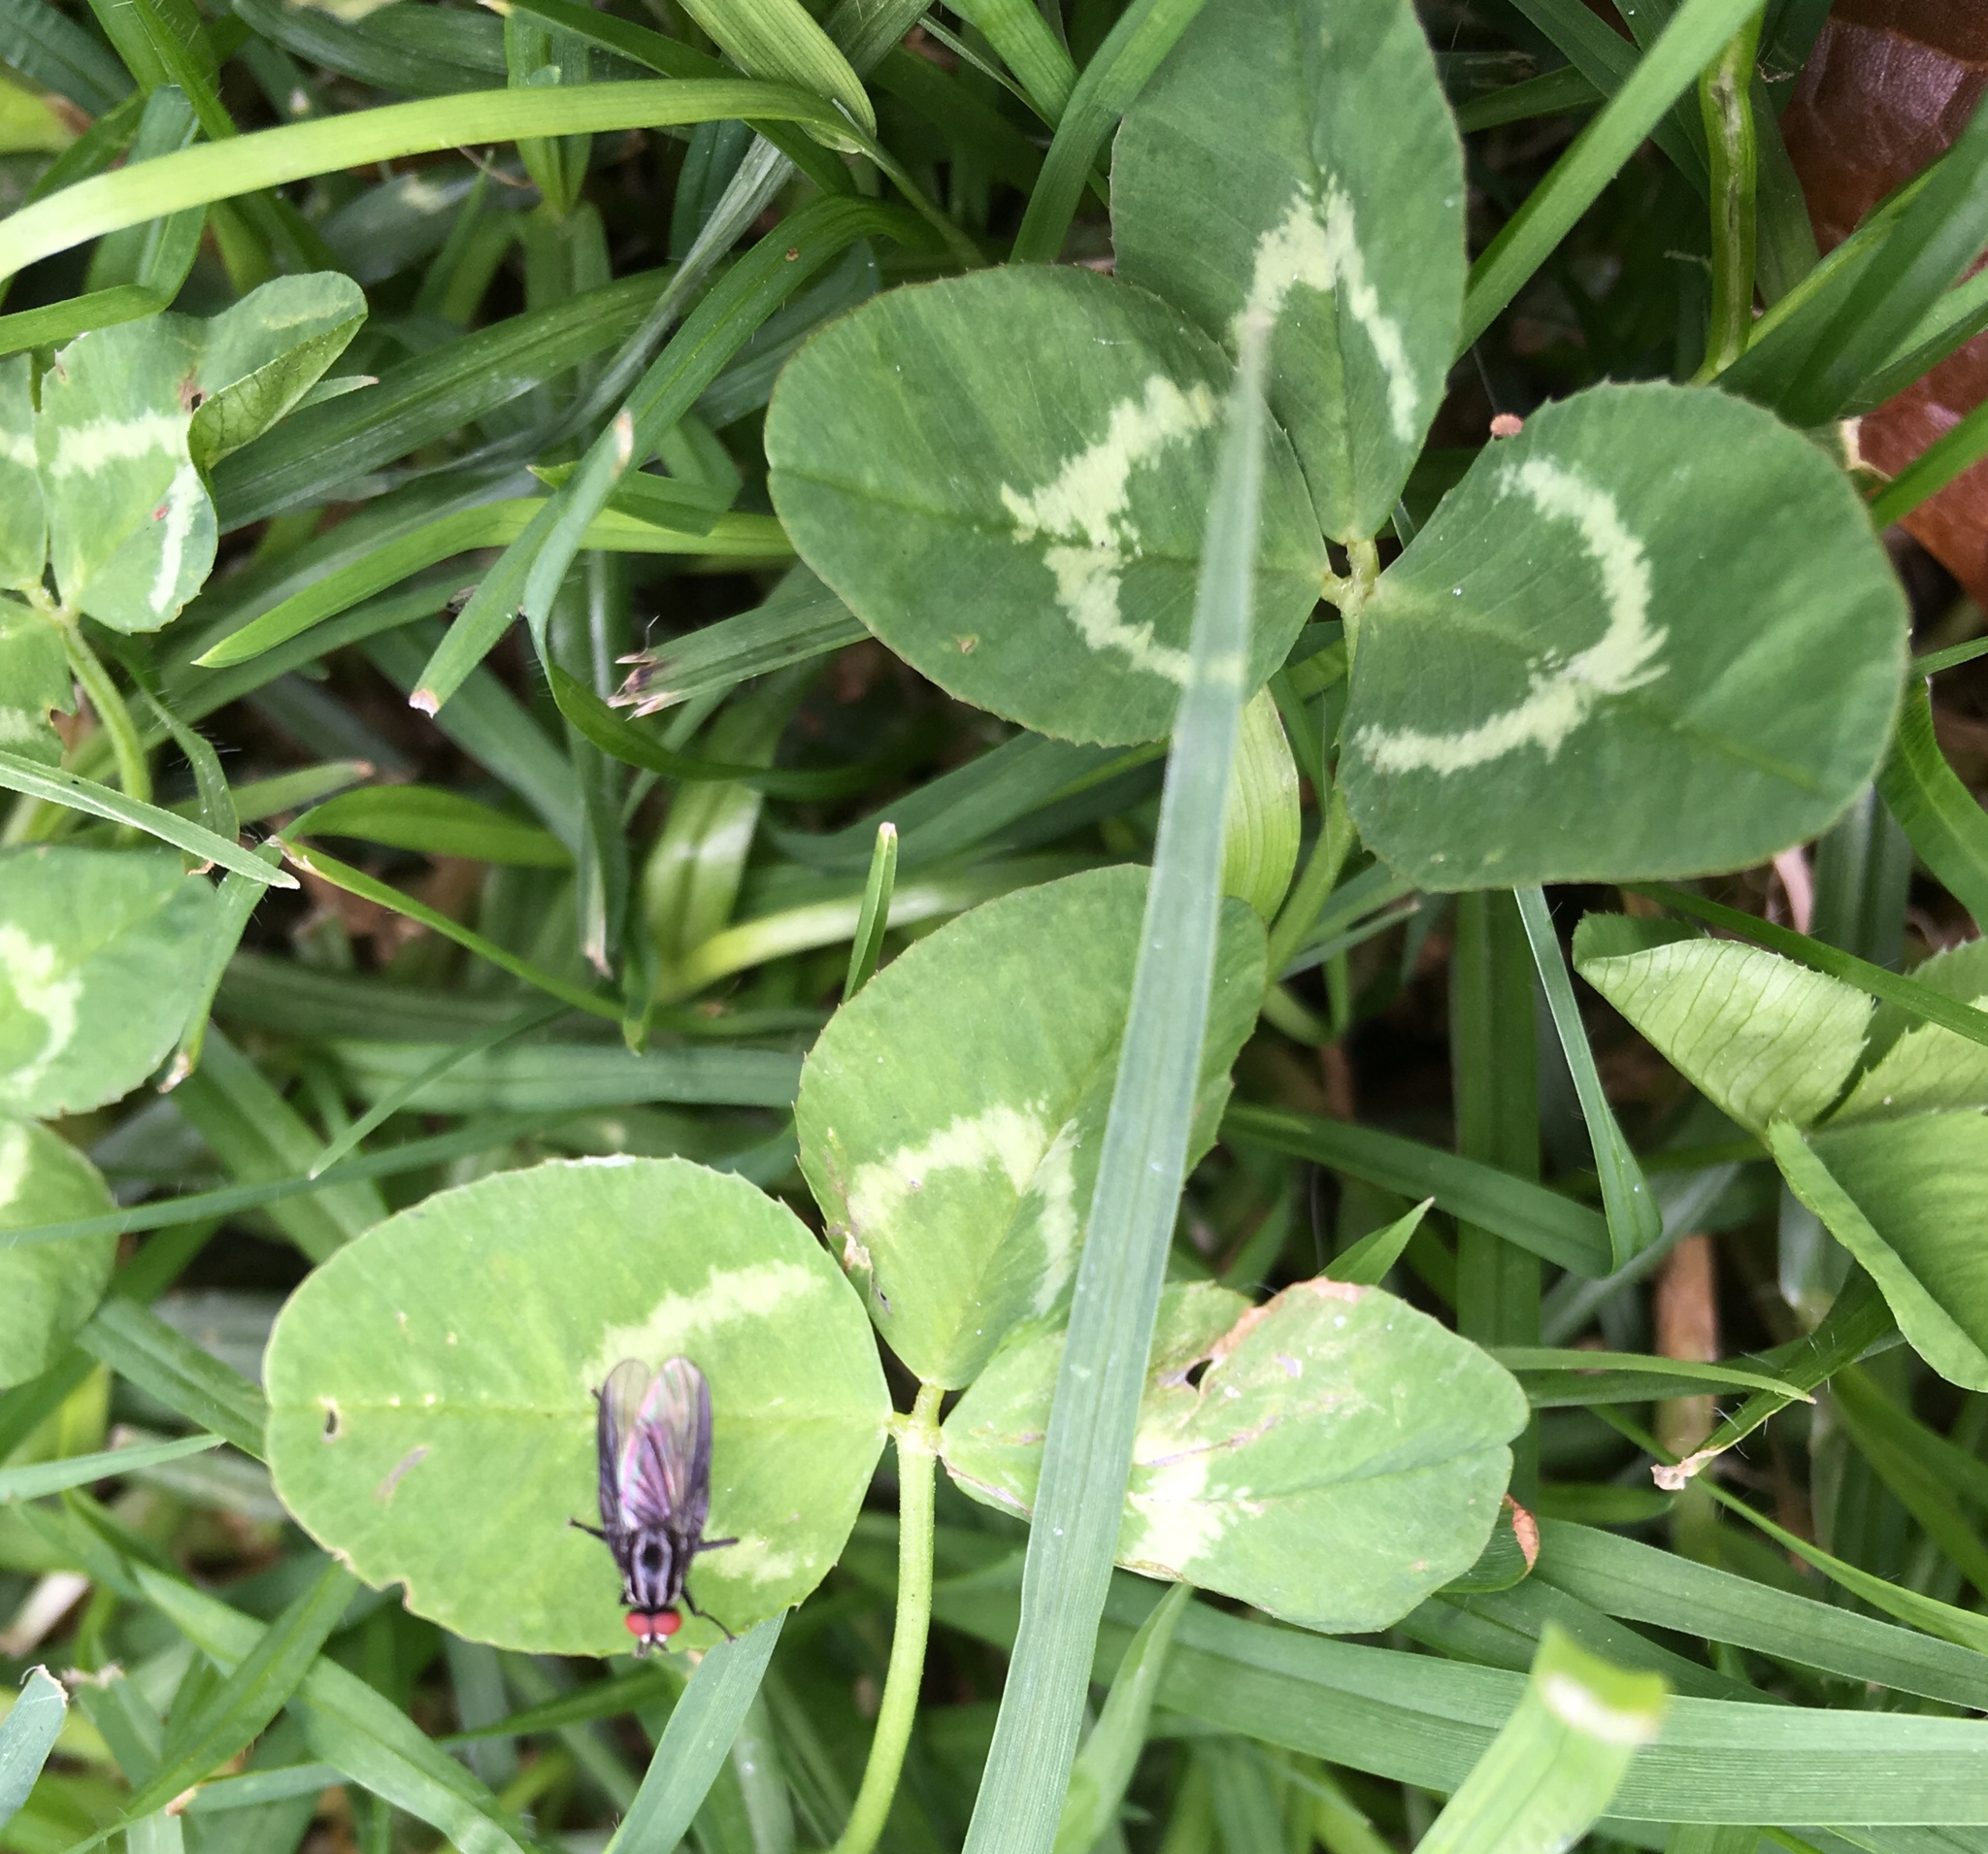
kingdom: Plantae
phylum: Tracheophyta
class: Magnoliopsida
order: Fabales
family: Fabaceae
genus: Trifolium
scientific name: Trifolium repens
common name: White clover
